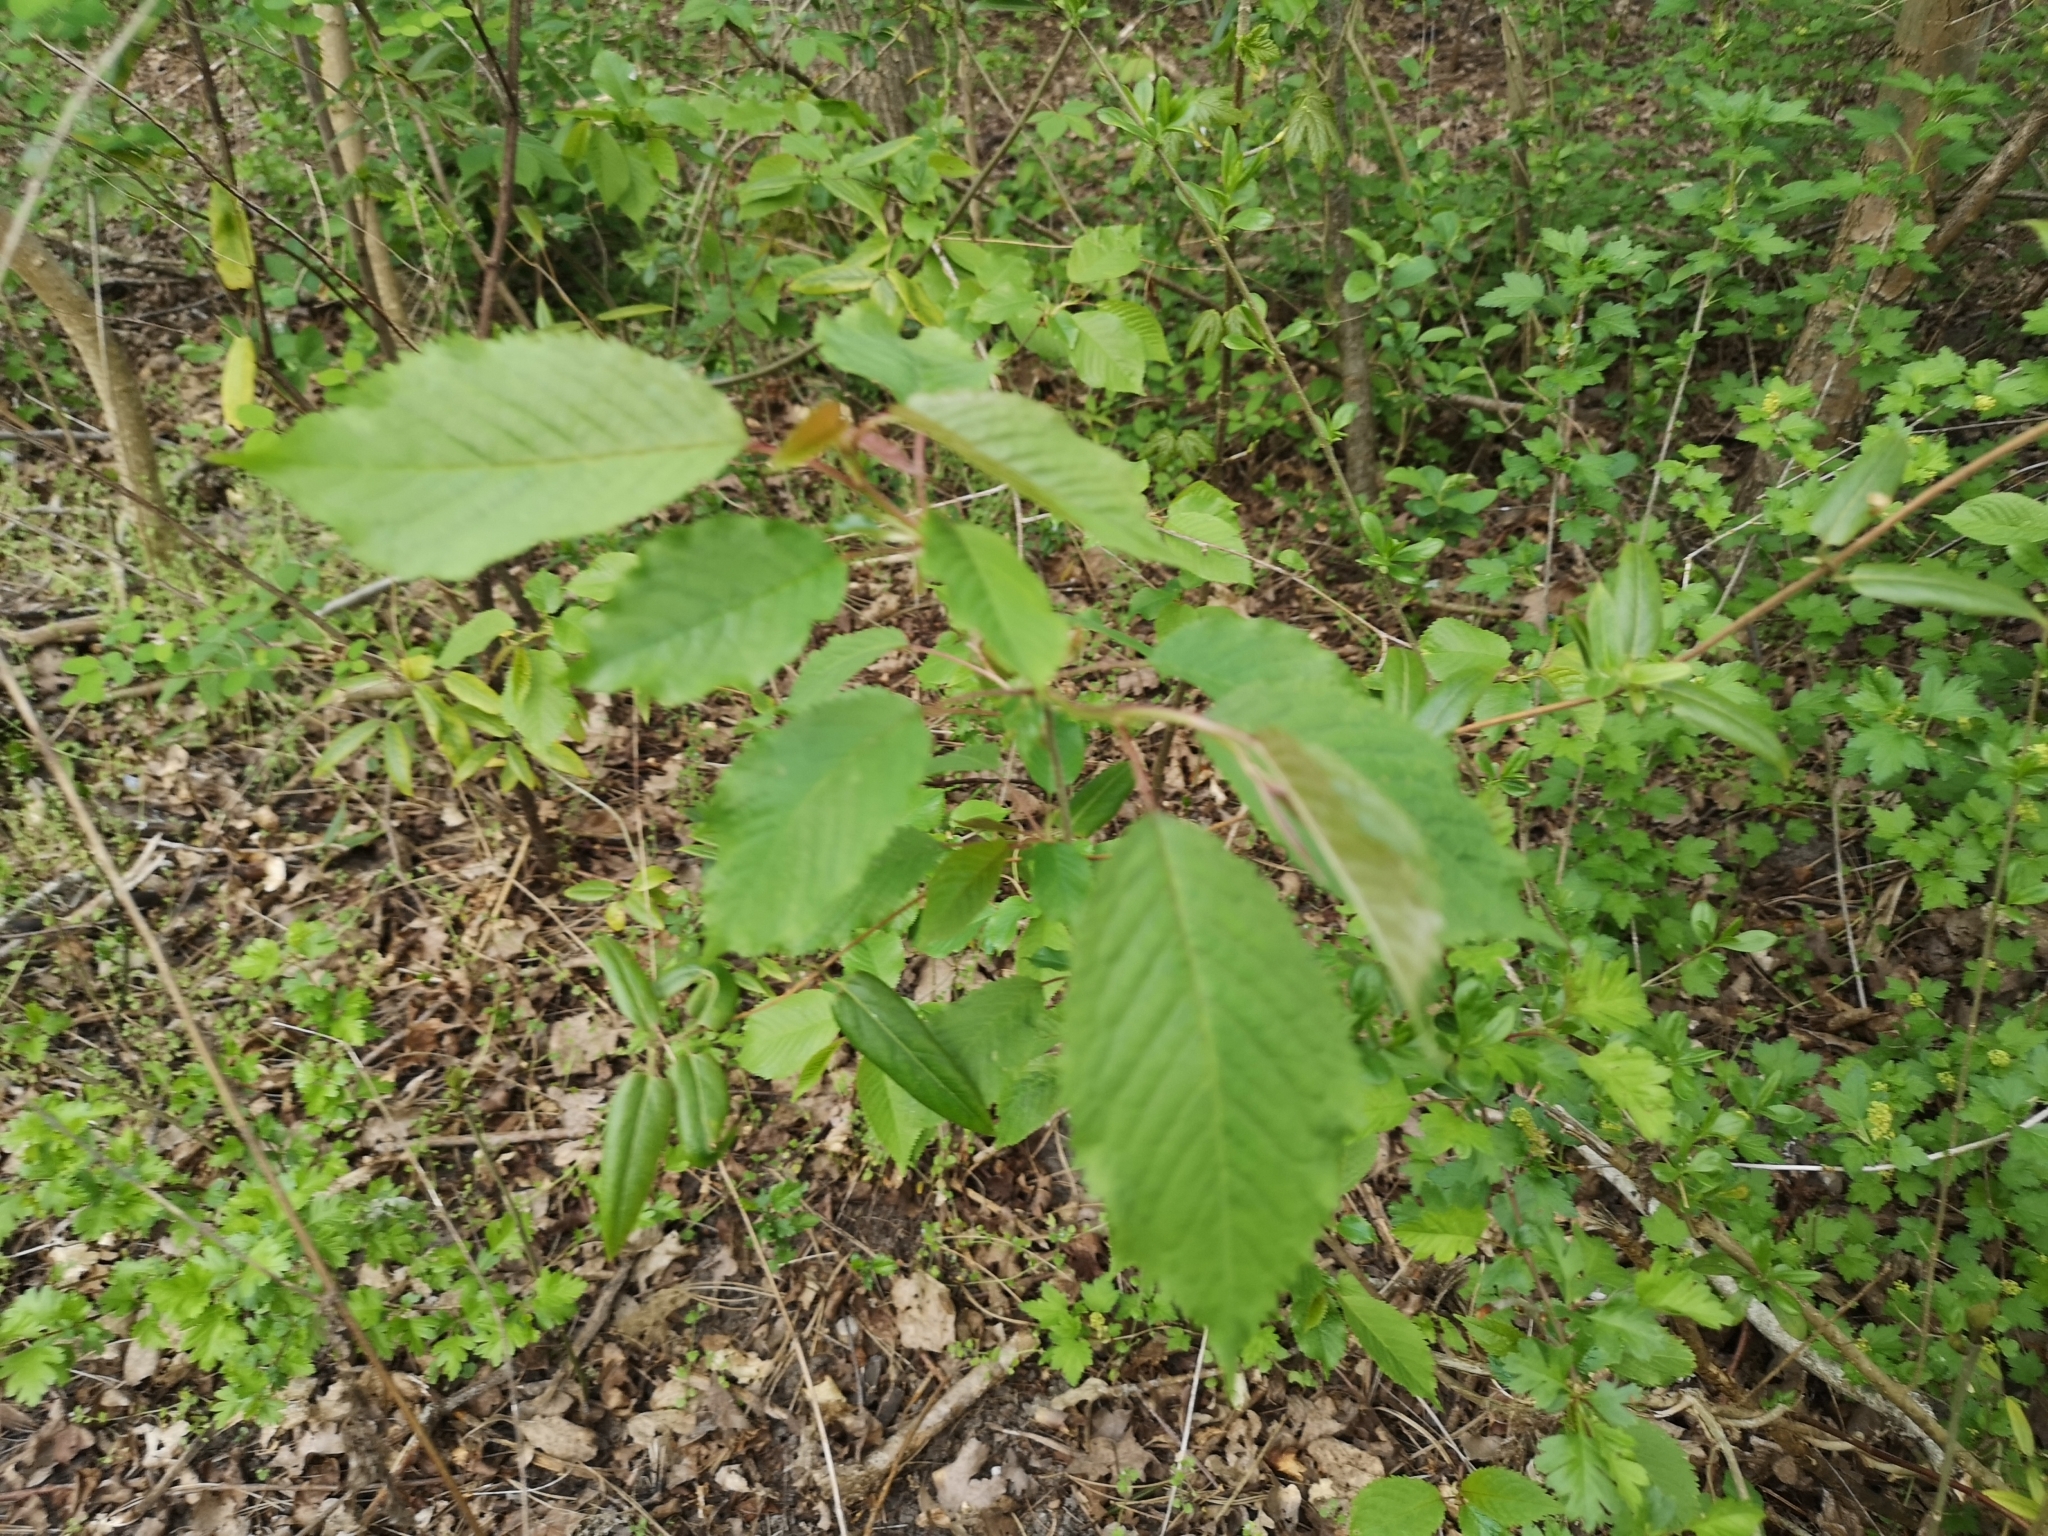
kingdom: Plantae
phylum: Tracheophyta
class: Magnoliopsida
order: Rosales
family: Rosaceae
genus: Prunus
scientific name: Prunus avium
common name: Sweet cherry
